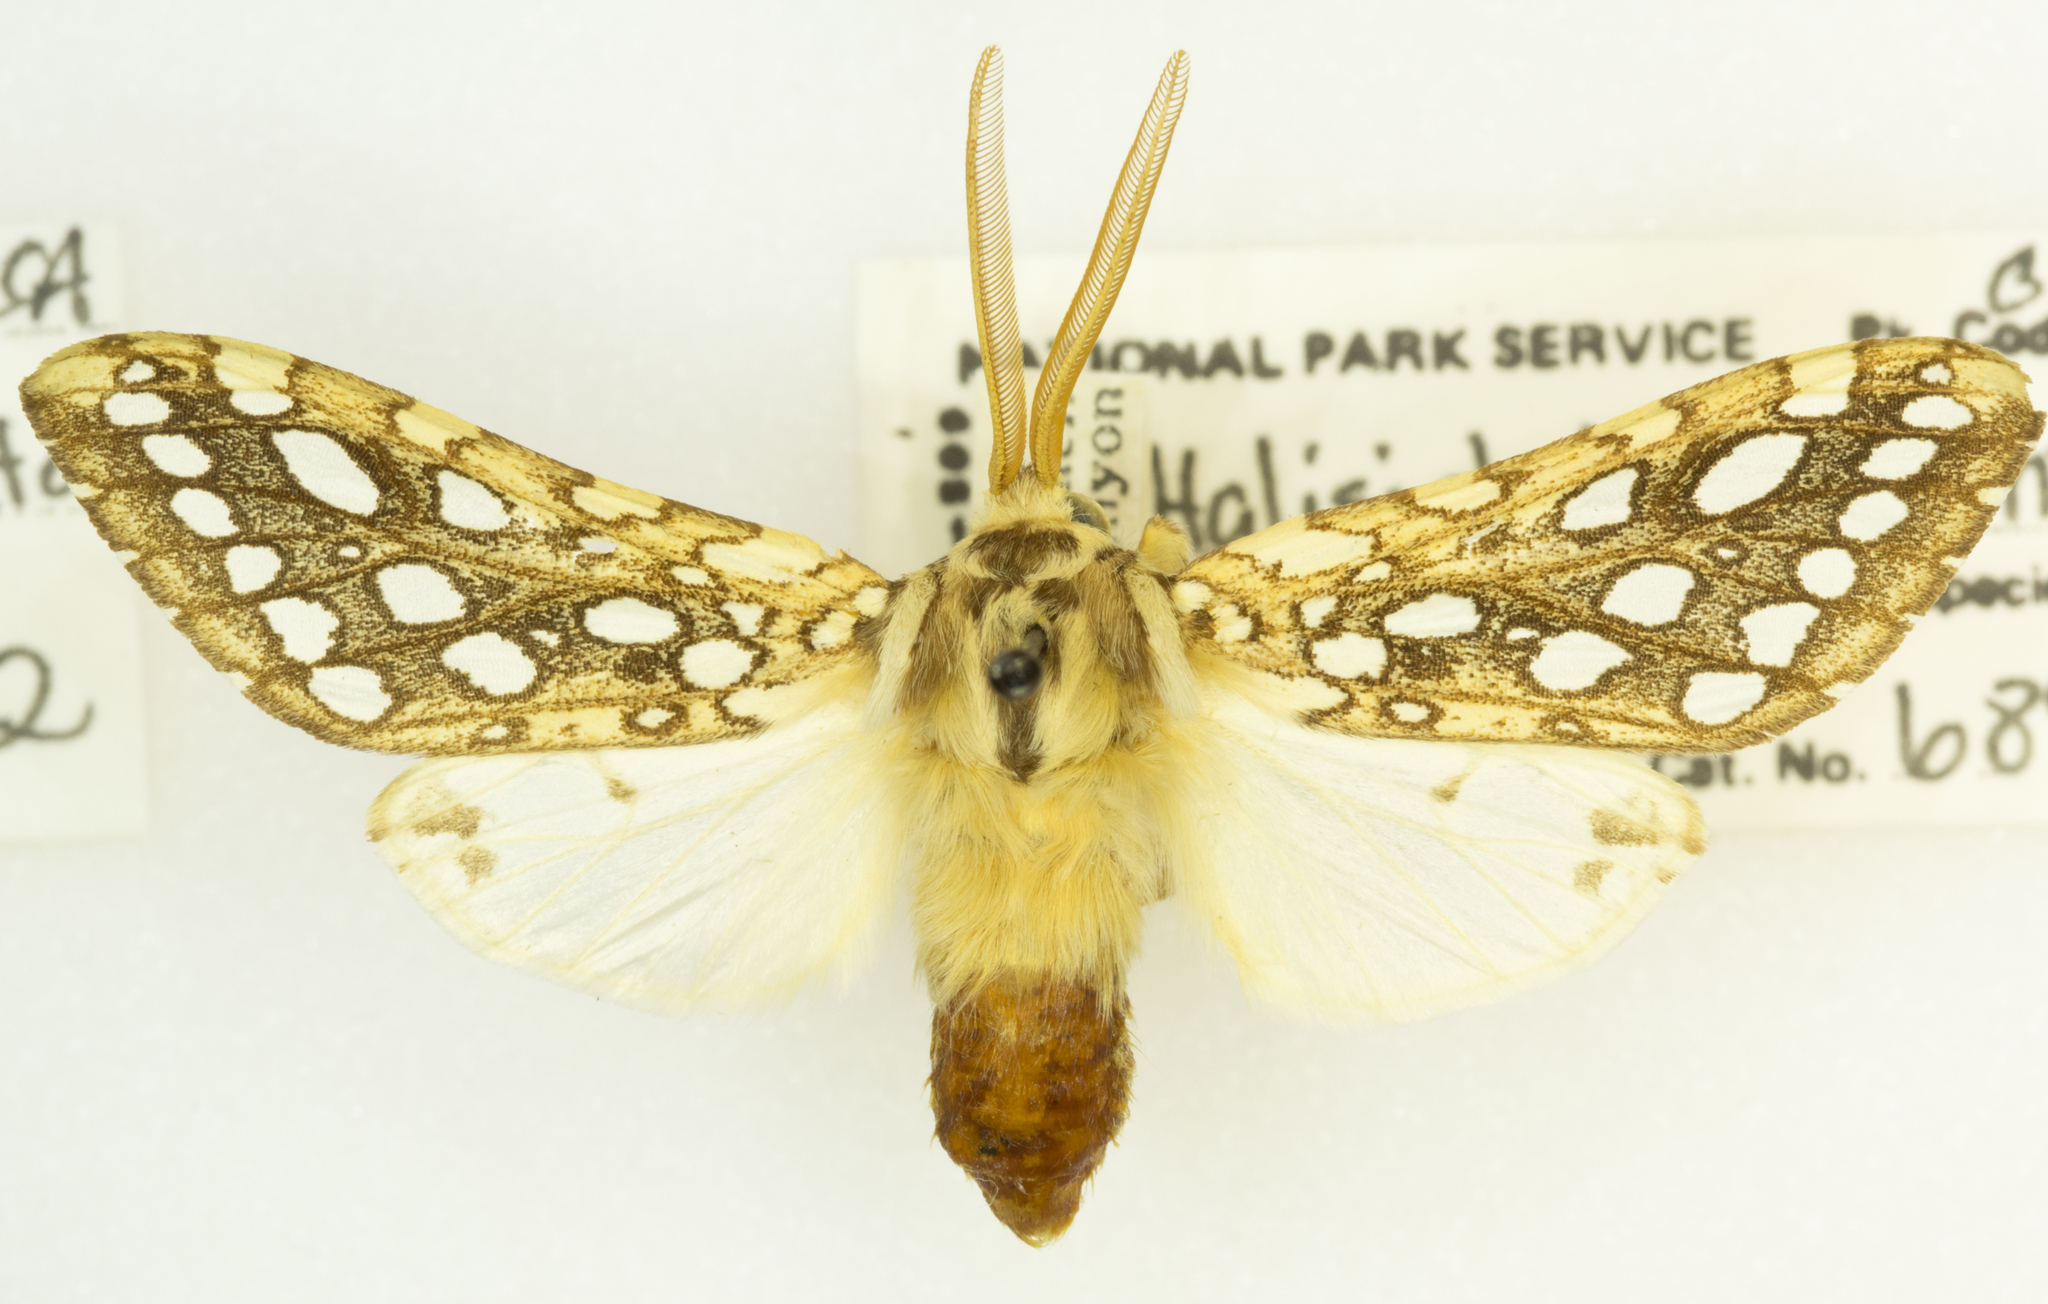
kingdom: Animalia
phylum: Arthropoda
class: Insecta
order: Lepidoptera
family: Erebidae
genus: Lophocampa
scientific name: Lophocampa argentata
